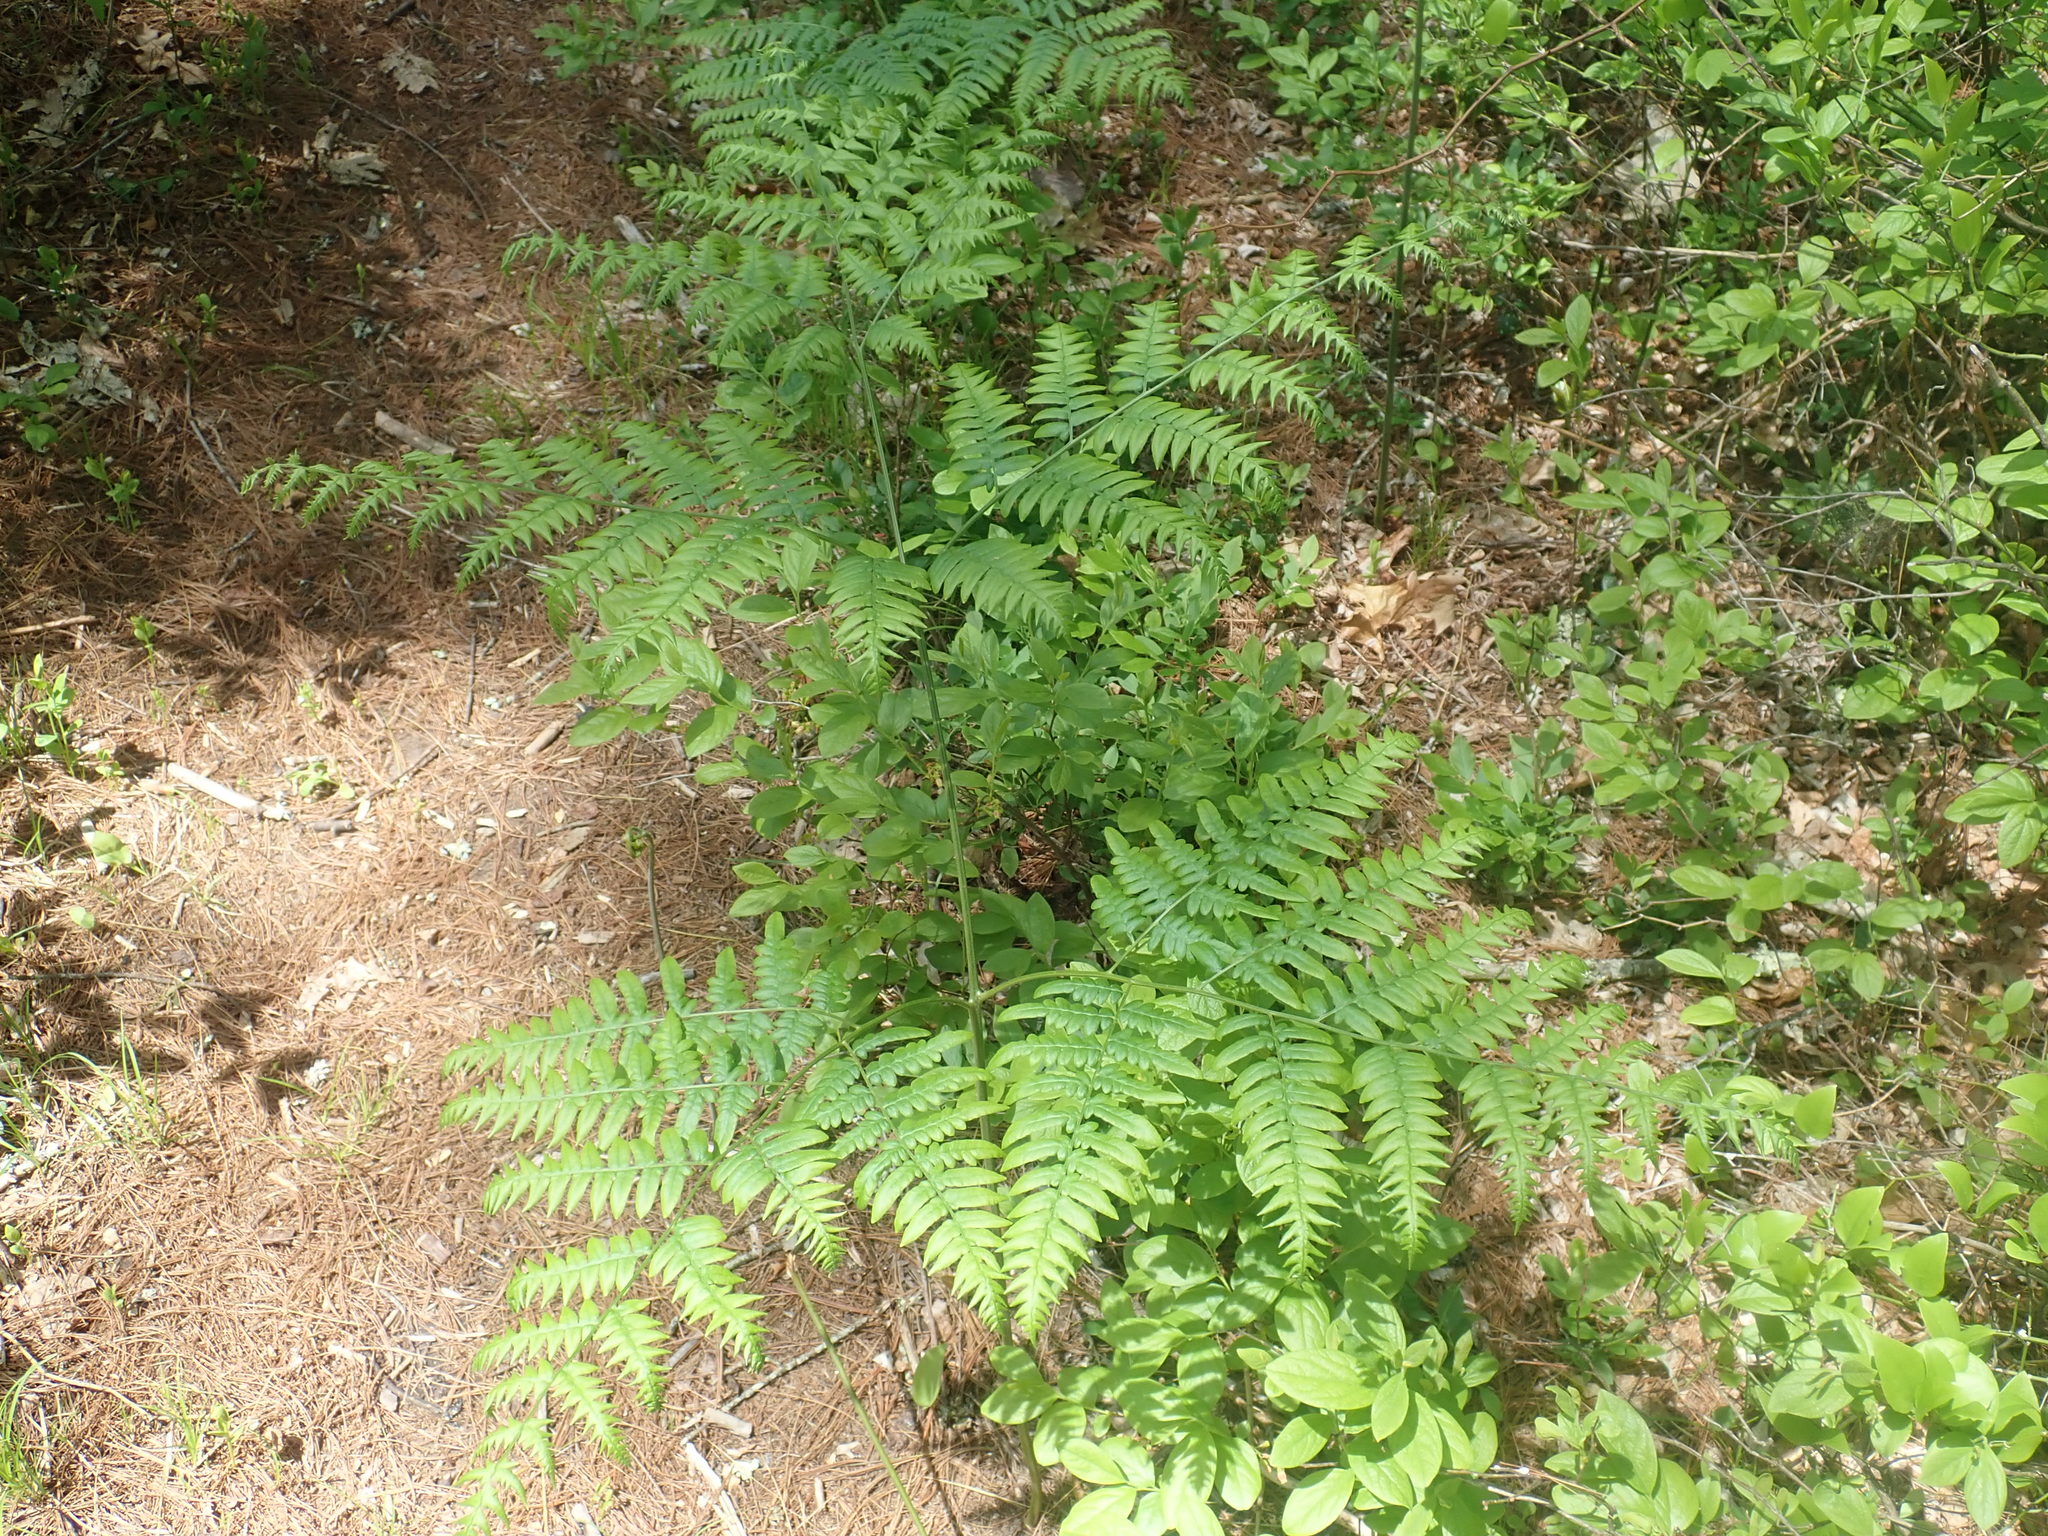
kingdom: Plantae
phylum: Tracheophyta
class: Polypodiopsida
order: Polypodiales
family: Dennstaedtiaceae
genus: Pteridium
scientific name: Pteridium aquilinum
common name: Bracken
